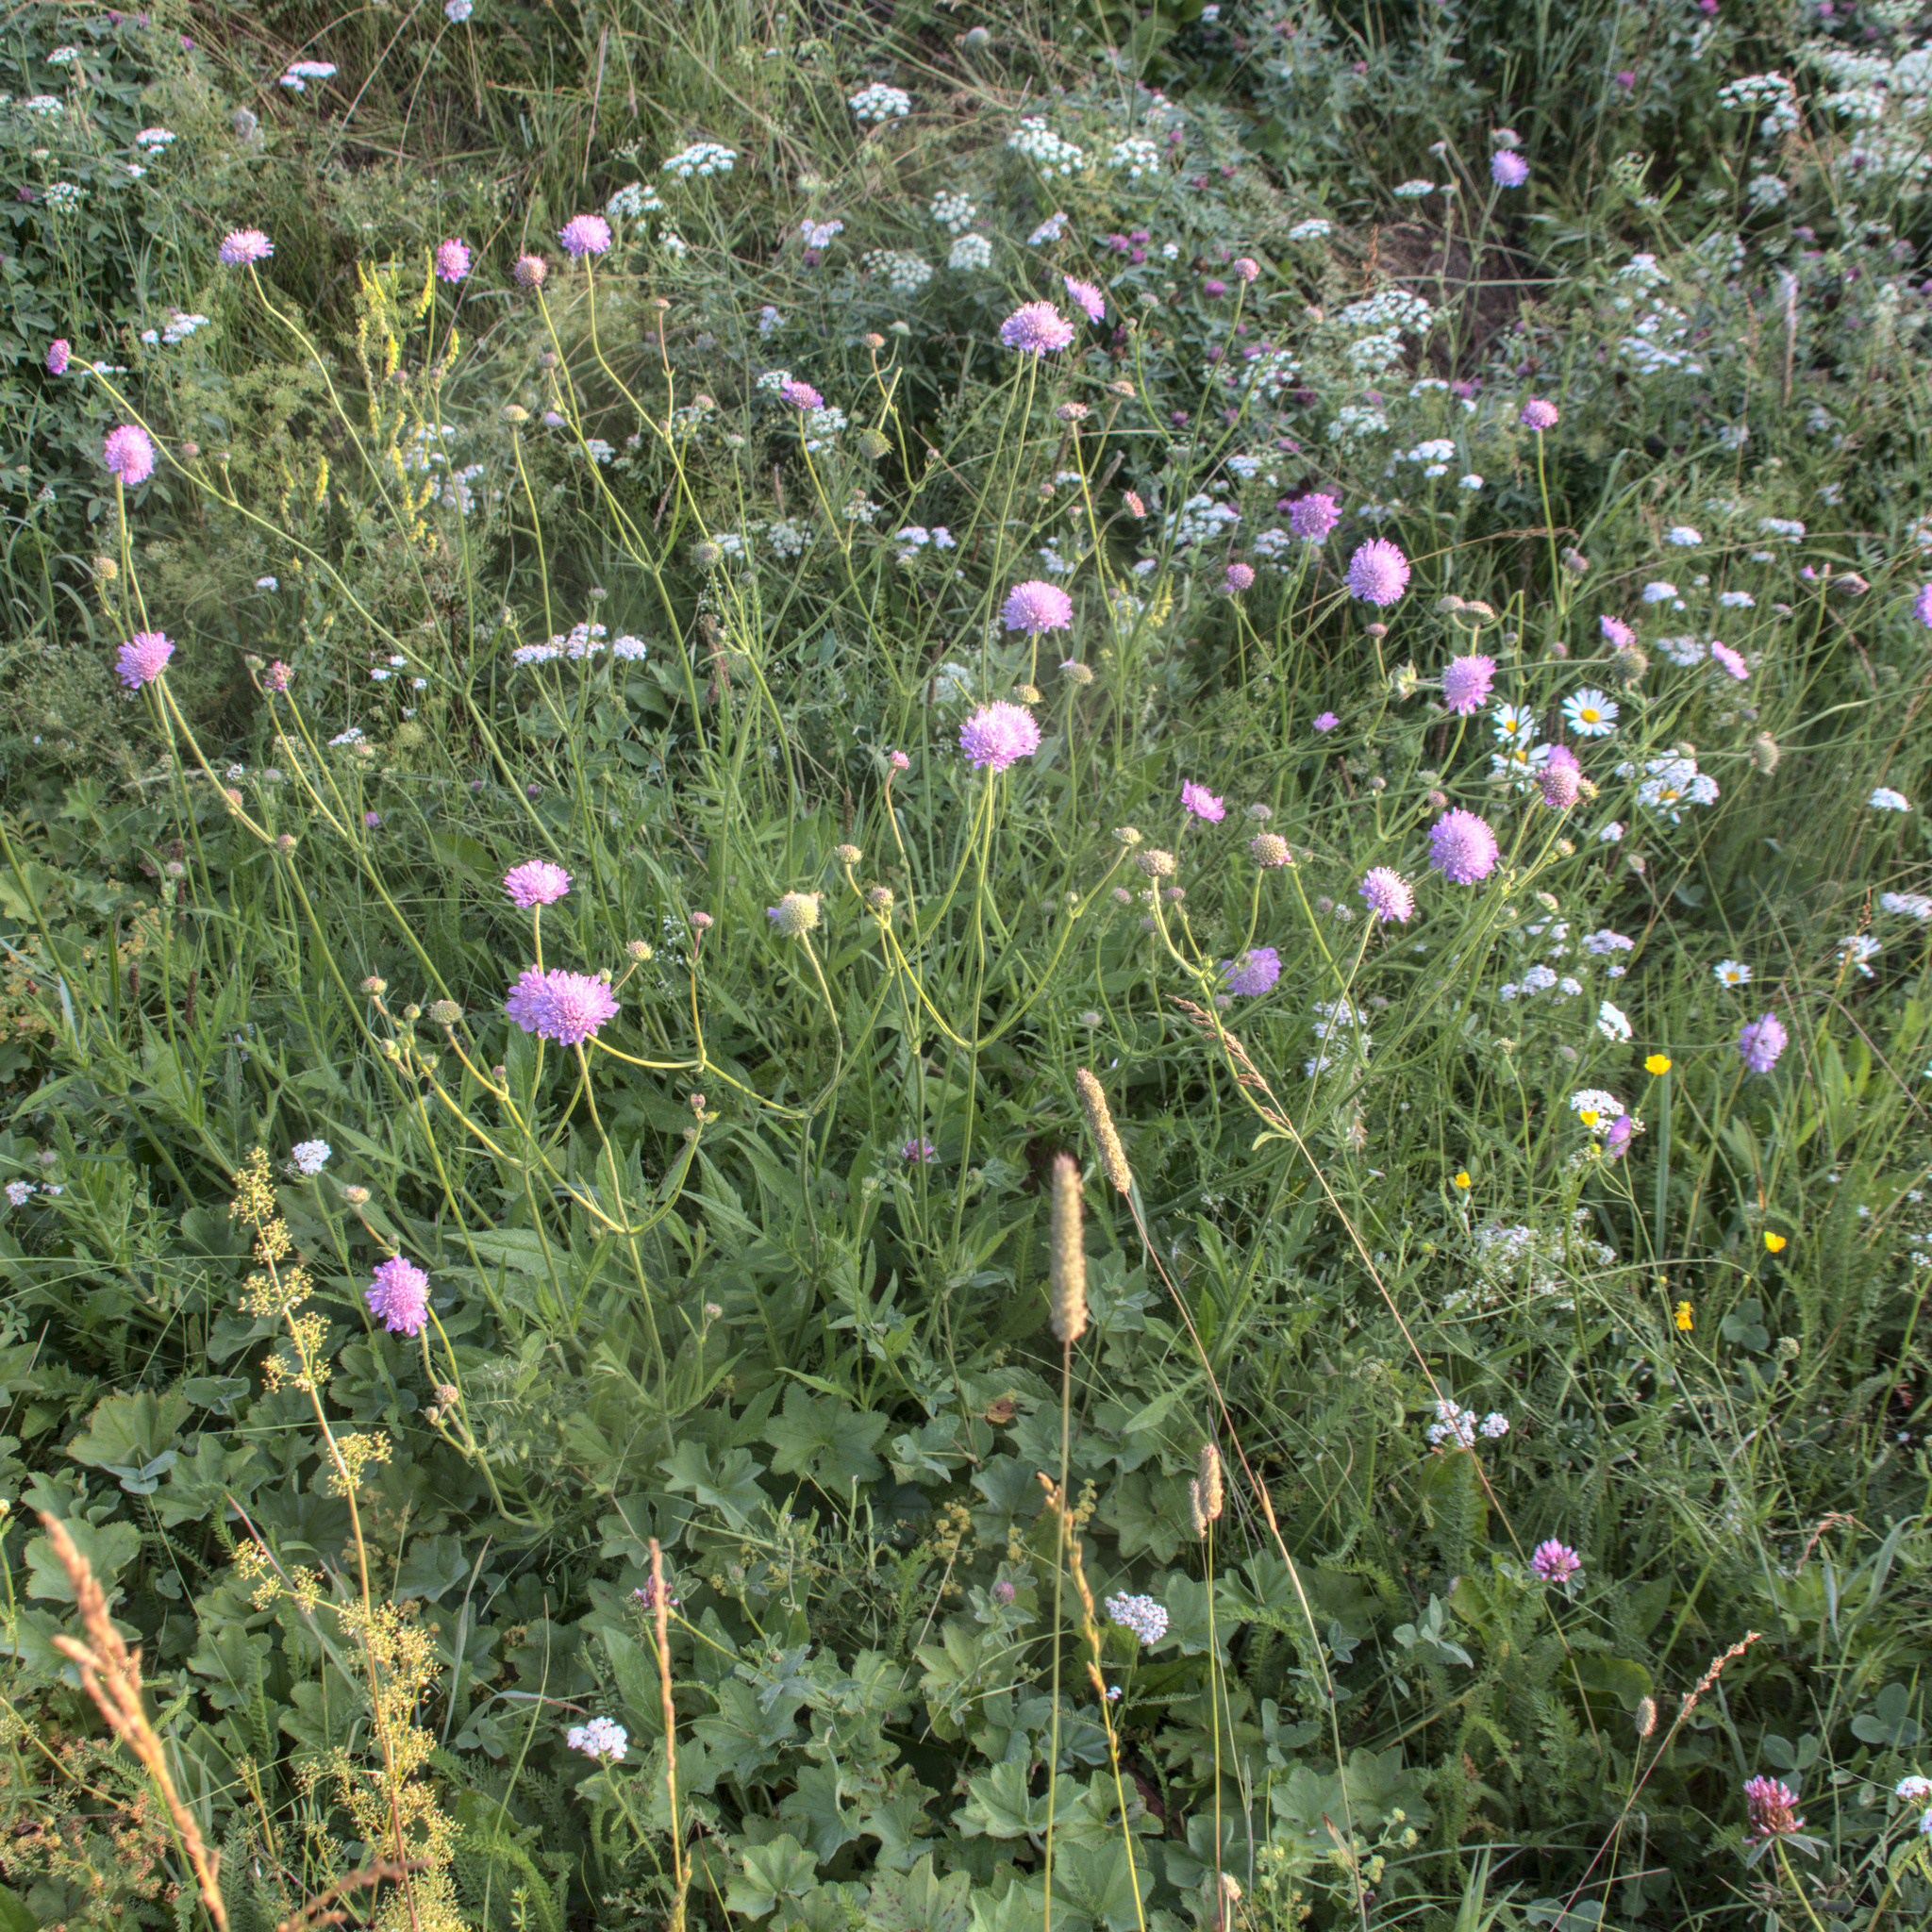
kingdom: Plantae
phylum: Tracheophyta
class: Magnoliopsida
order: Dipsacales
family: Caprifoliaceae
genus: Knautia
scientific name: Knautia arvensis
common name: Field scabiosa
